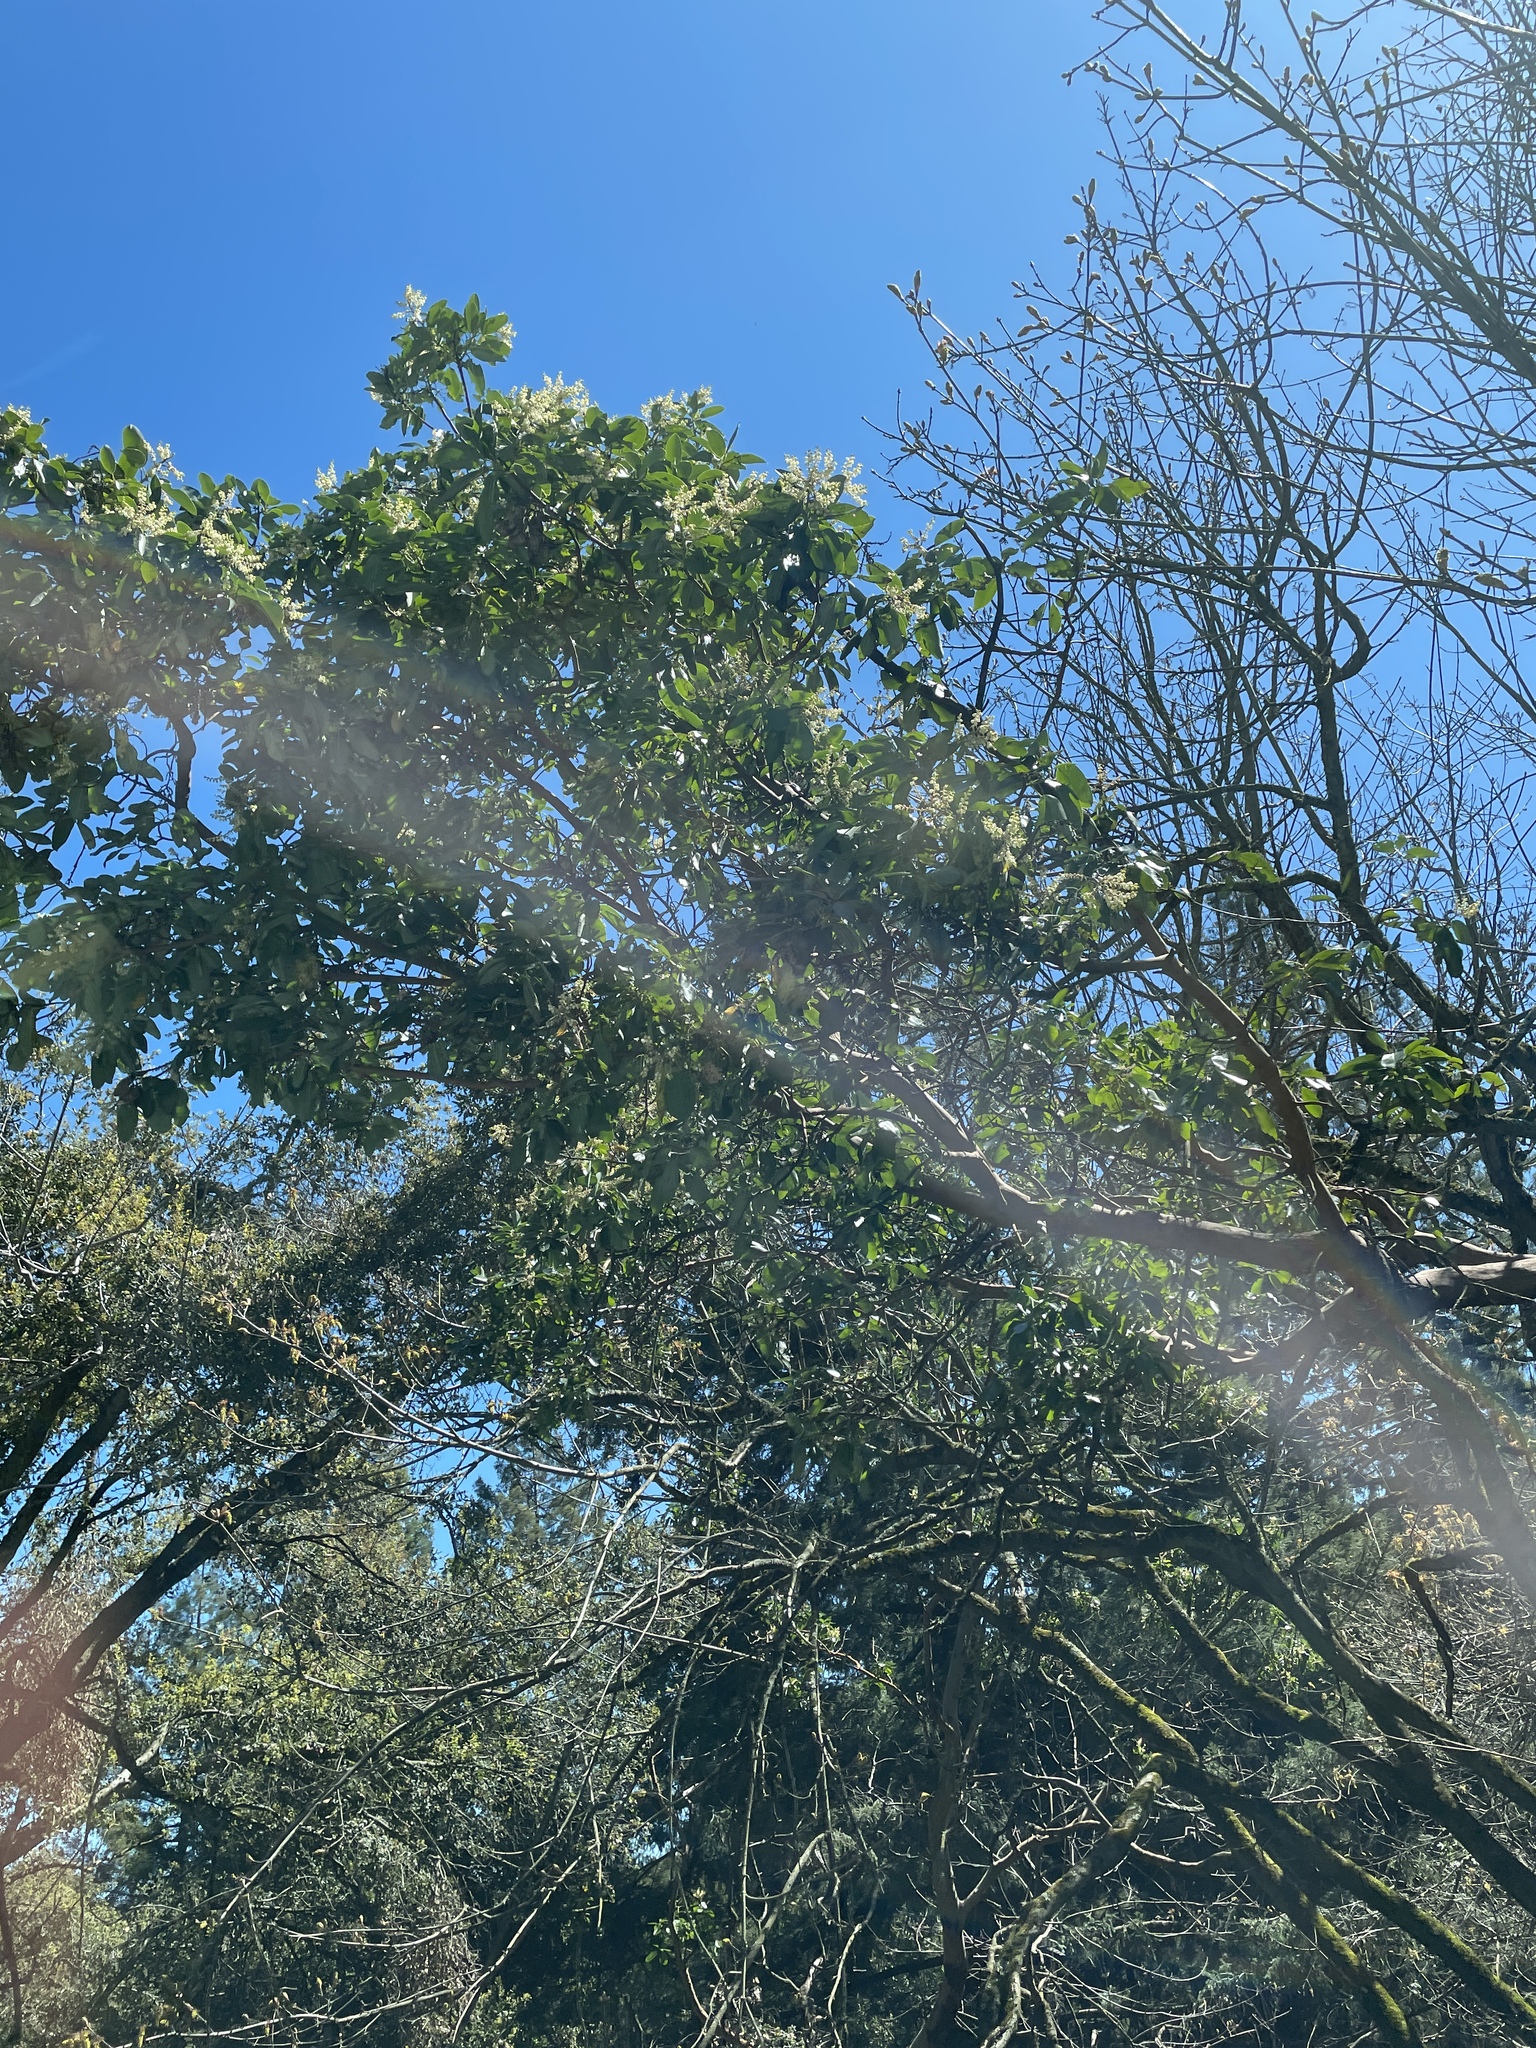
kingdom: Plantae
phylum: Tracheophyta
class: Magnoliopsida
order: Ericales
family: Ericaceae
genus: Arbutus
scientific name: Arbutus menziesii
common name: Pacific madrone
